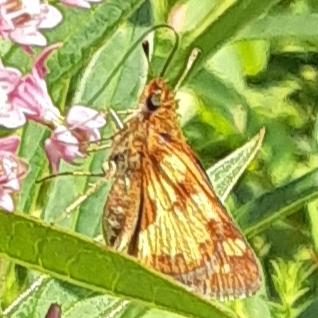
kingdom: Animalia
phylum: Arthropoda
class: Insecta
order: Lepidoptera
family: Hesperiidae
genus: Polites
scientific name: Polites coras
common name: Peck's skipper
